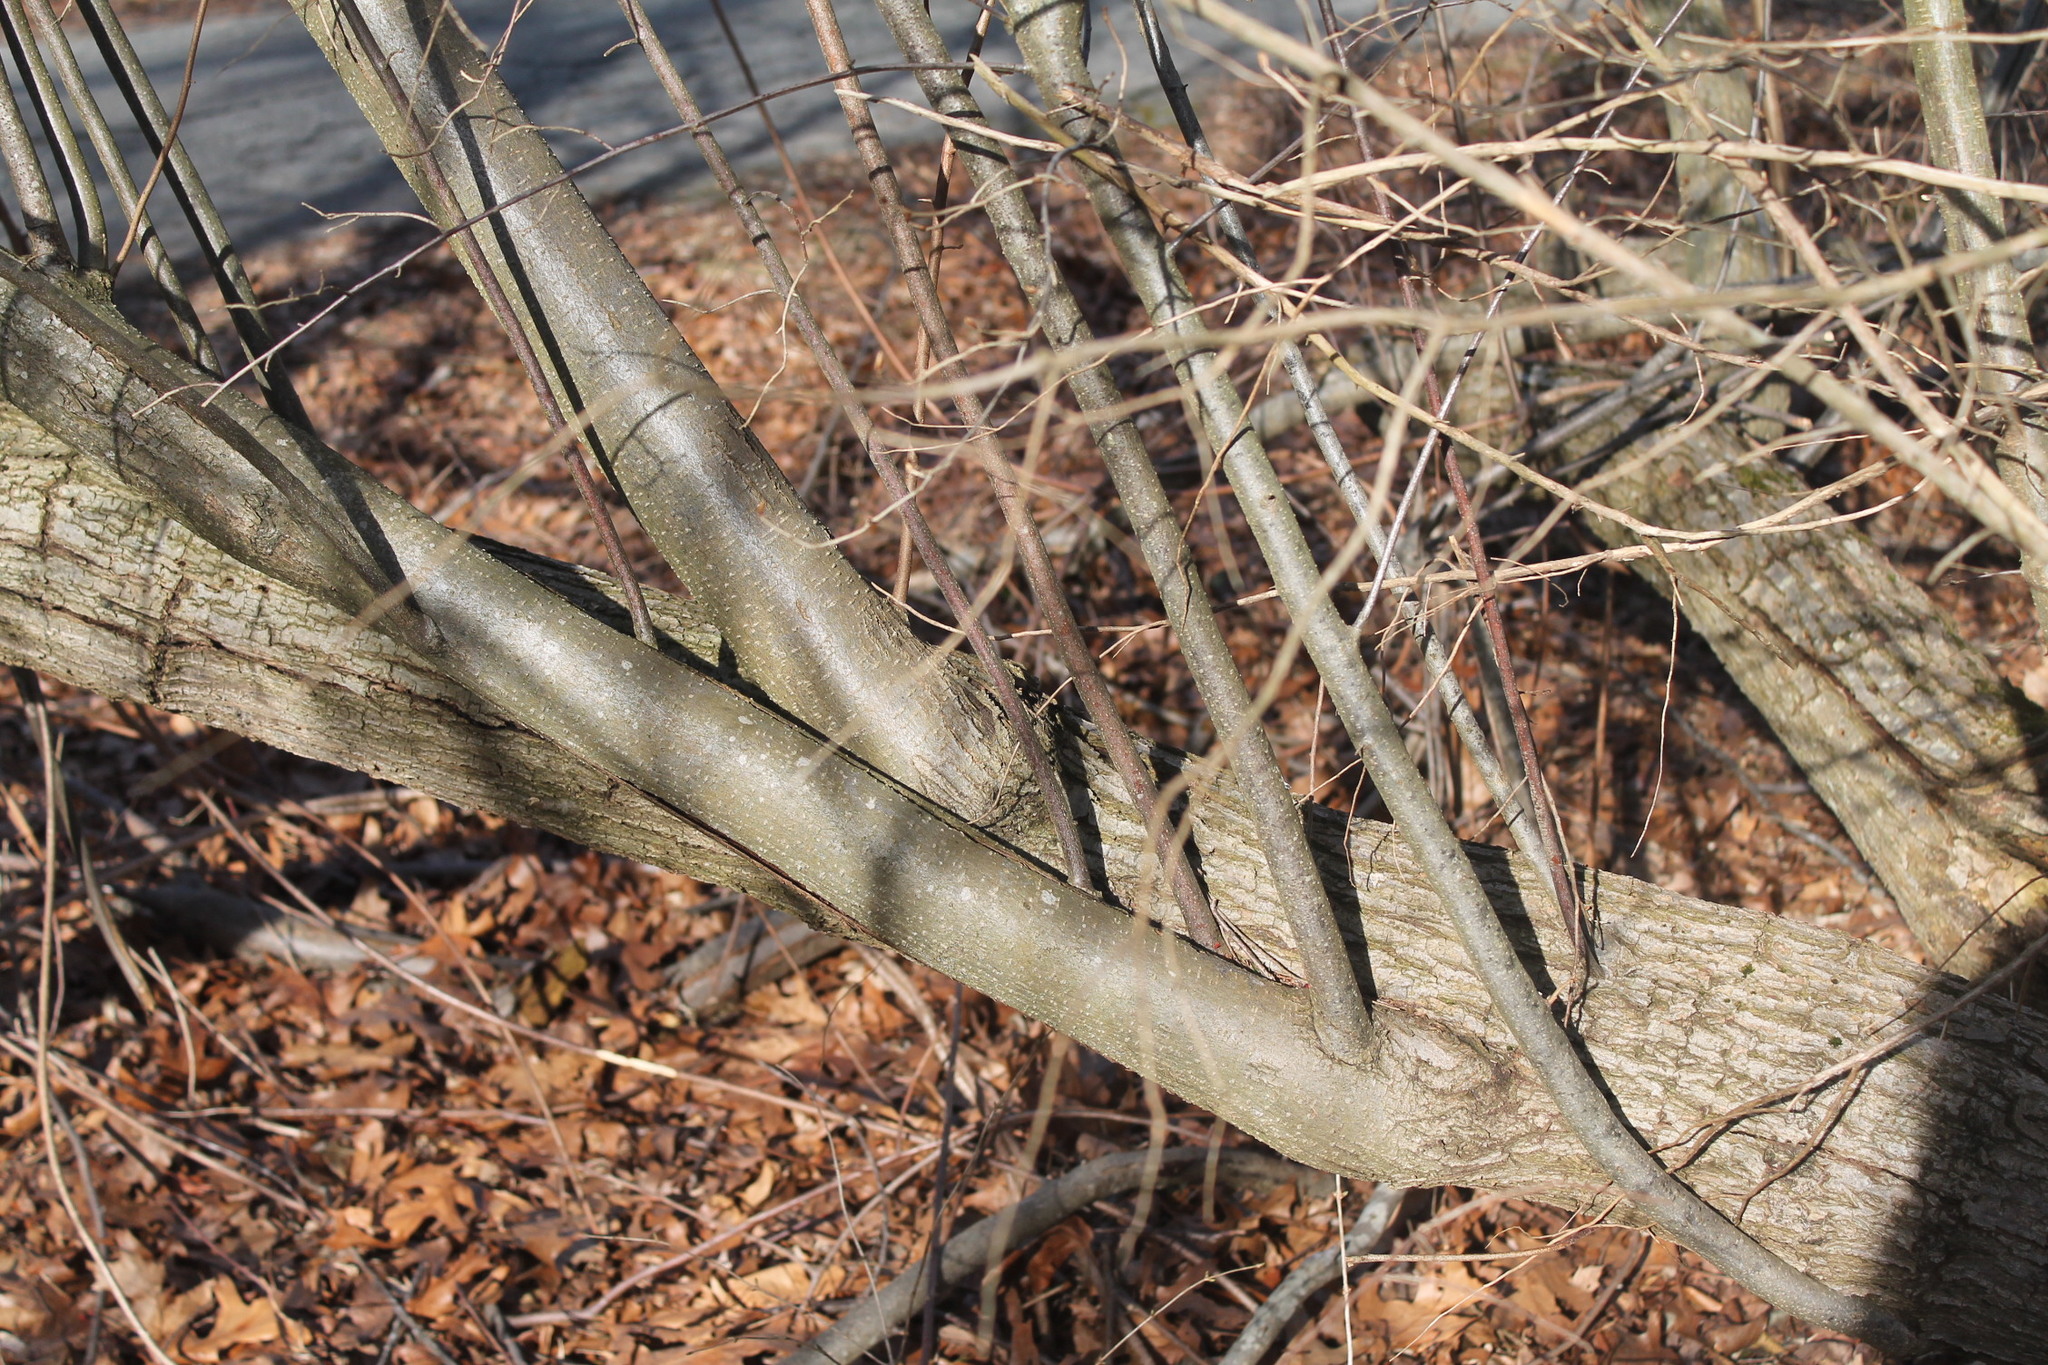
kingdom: Plantae
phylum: Tracheophyta
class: Magnoliopsida
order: Rosales
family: Elaeagnaceae
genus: Elaeagnus
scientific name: Elaeagnus umbellata
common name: Autumn olive
